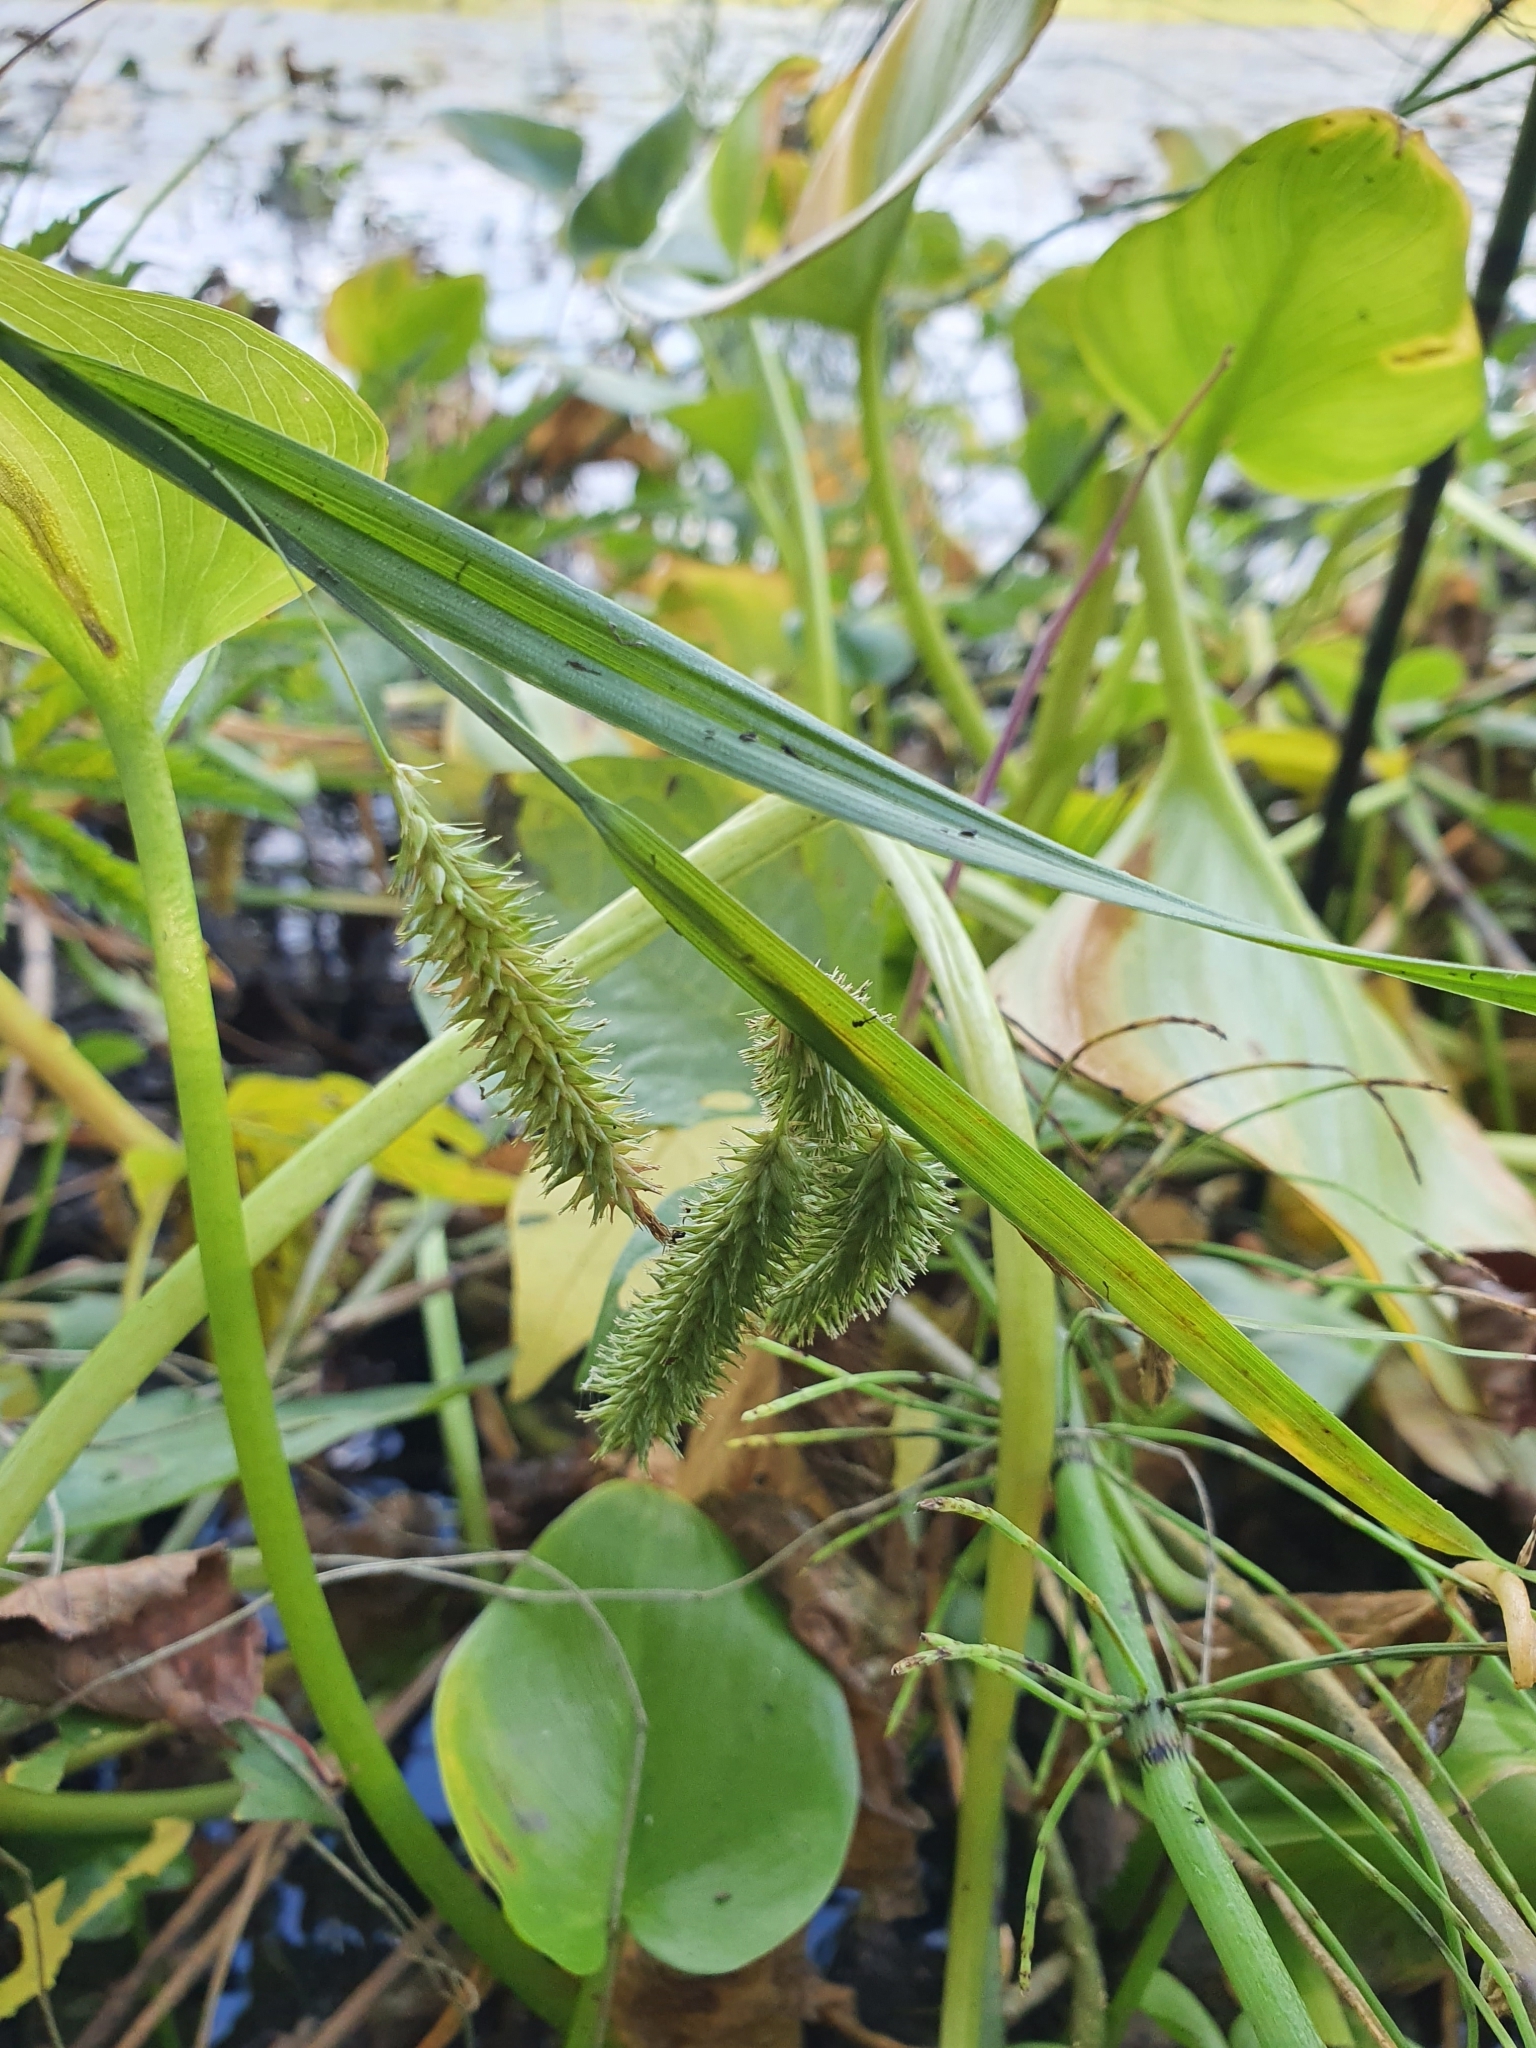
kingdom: Plantae
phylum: Tracheophyta
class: Liliopsida
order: Poales
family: Cyperaceae
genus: Carex
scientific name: Carex pseudocyperus
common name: Cyperus sedge
